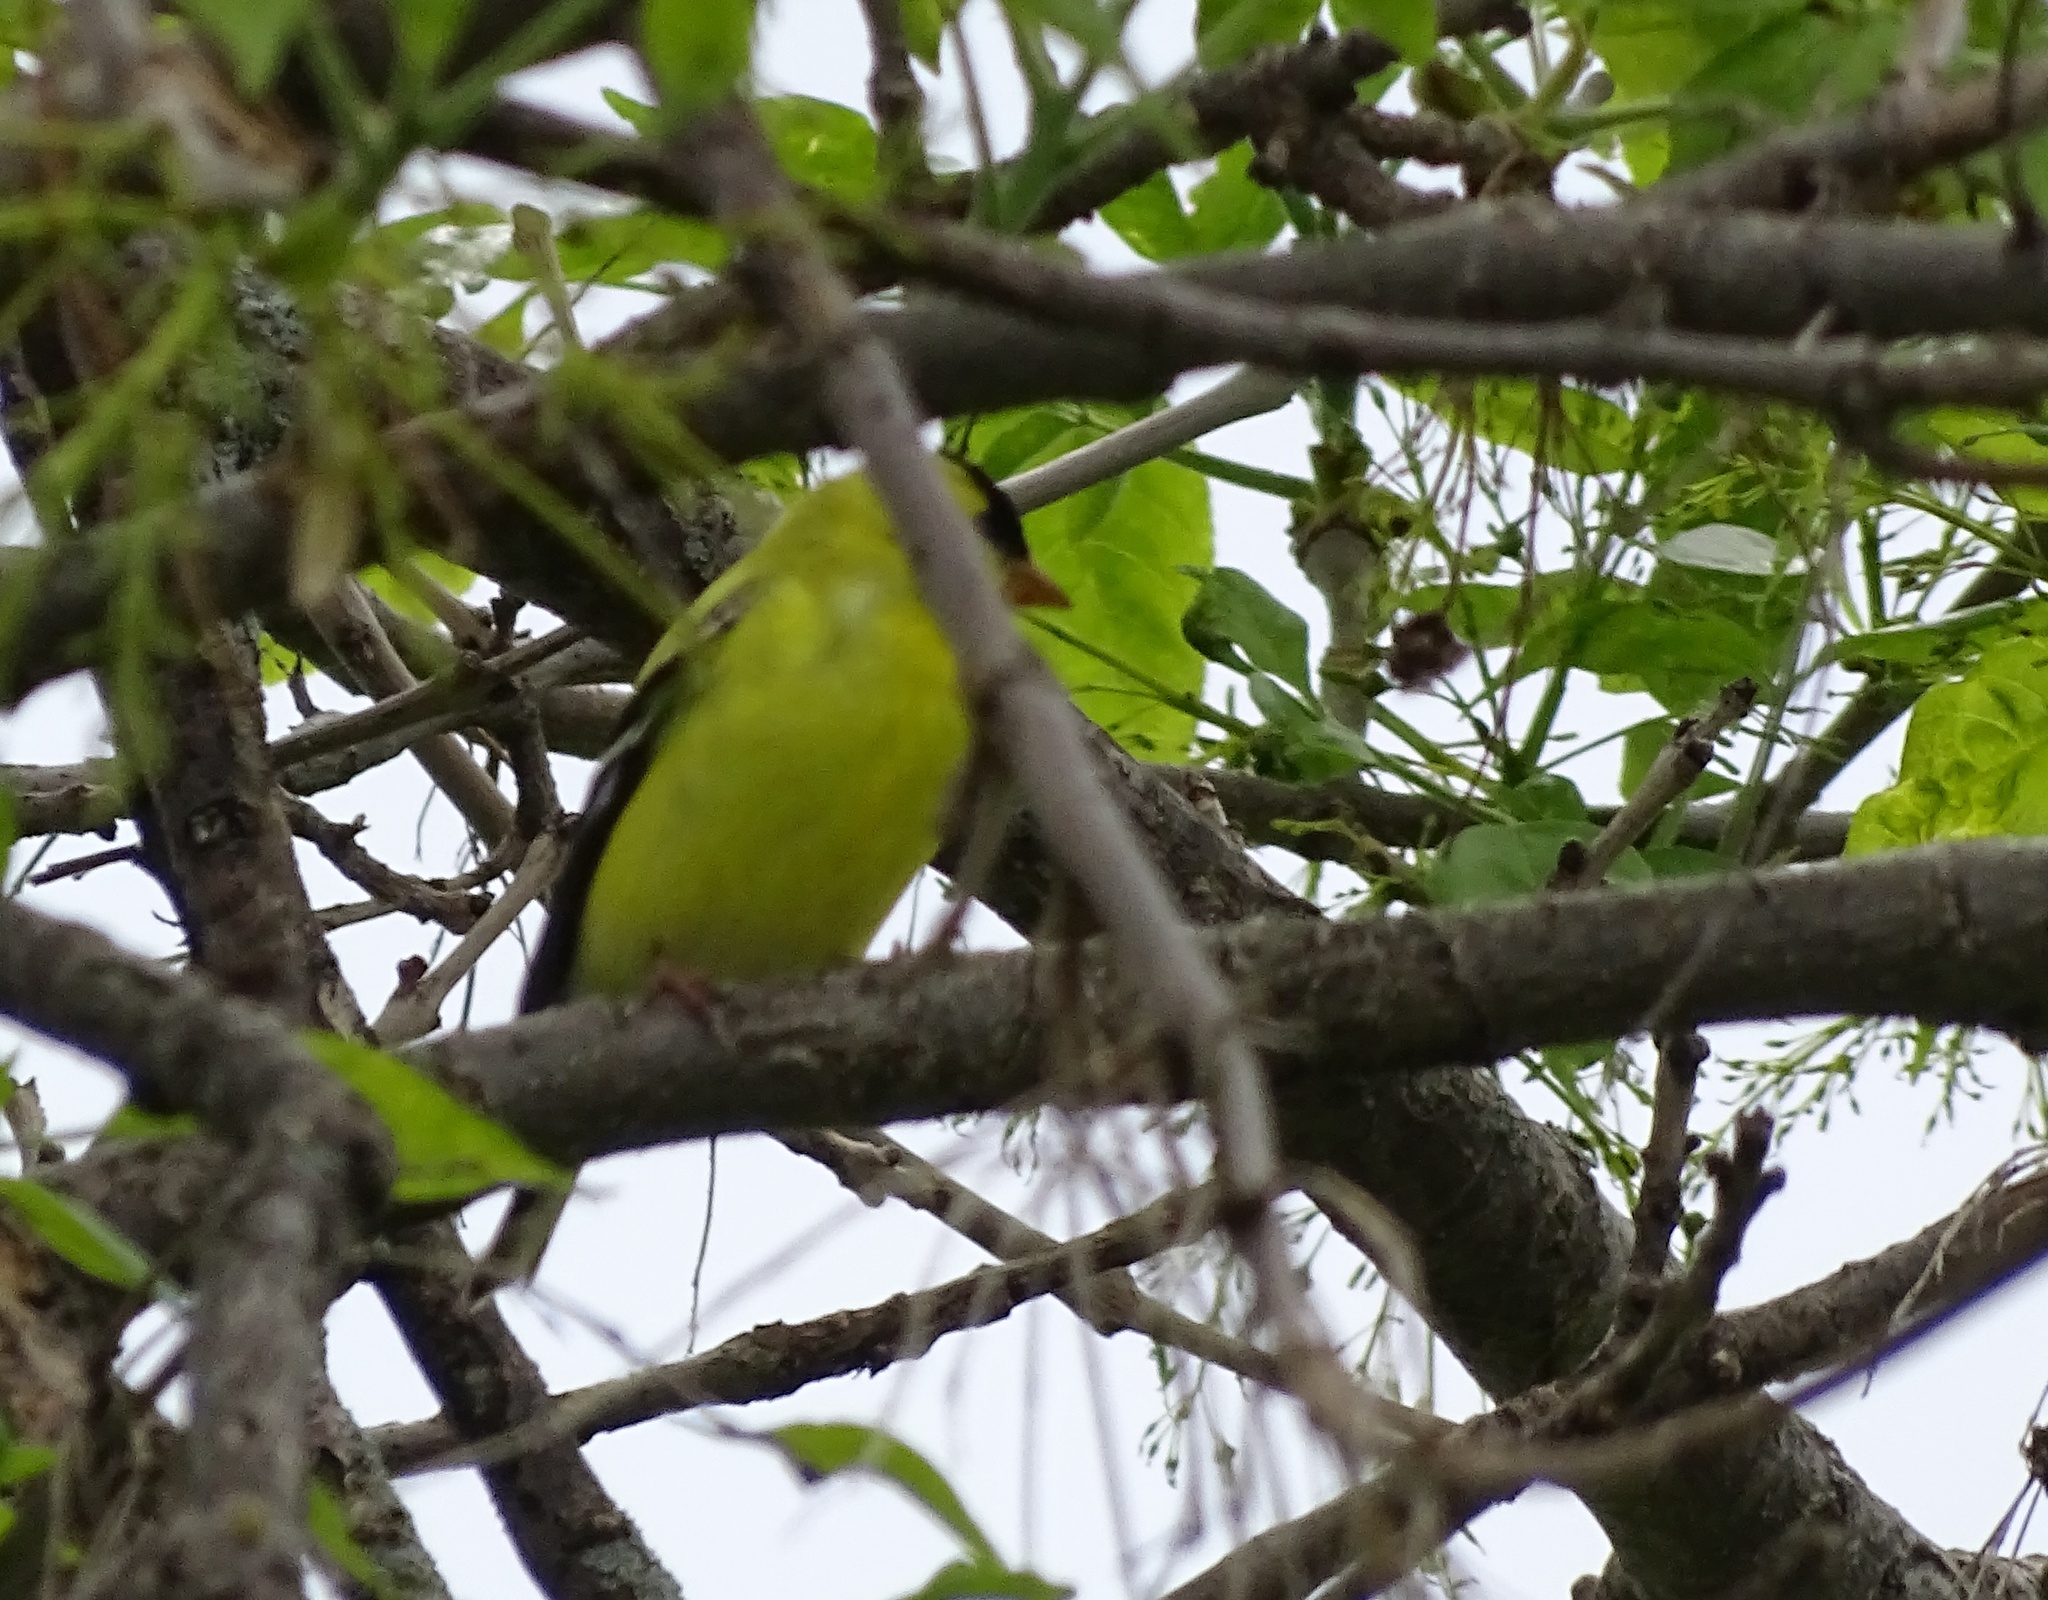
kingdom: Animalia
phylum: Chordata
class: Aves
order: Passeriformes
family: Fringillidae
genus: Spinus
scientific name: Spinus tristis
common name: American goldfinch
